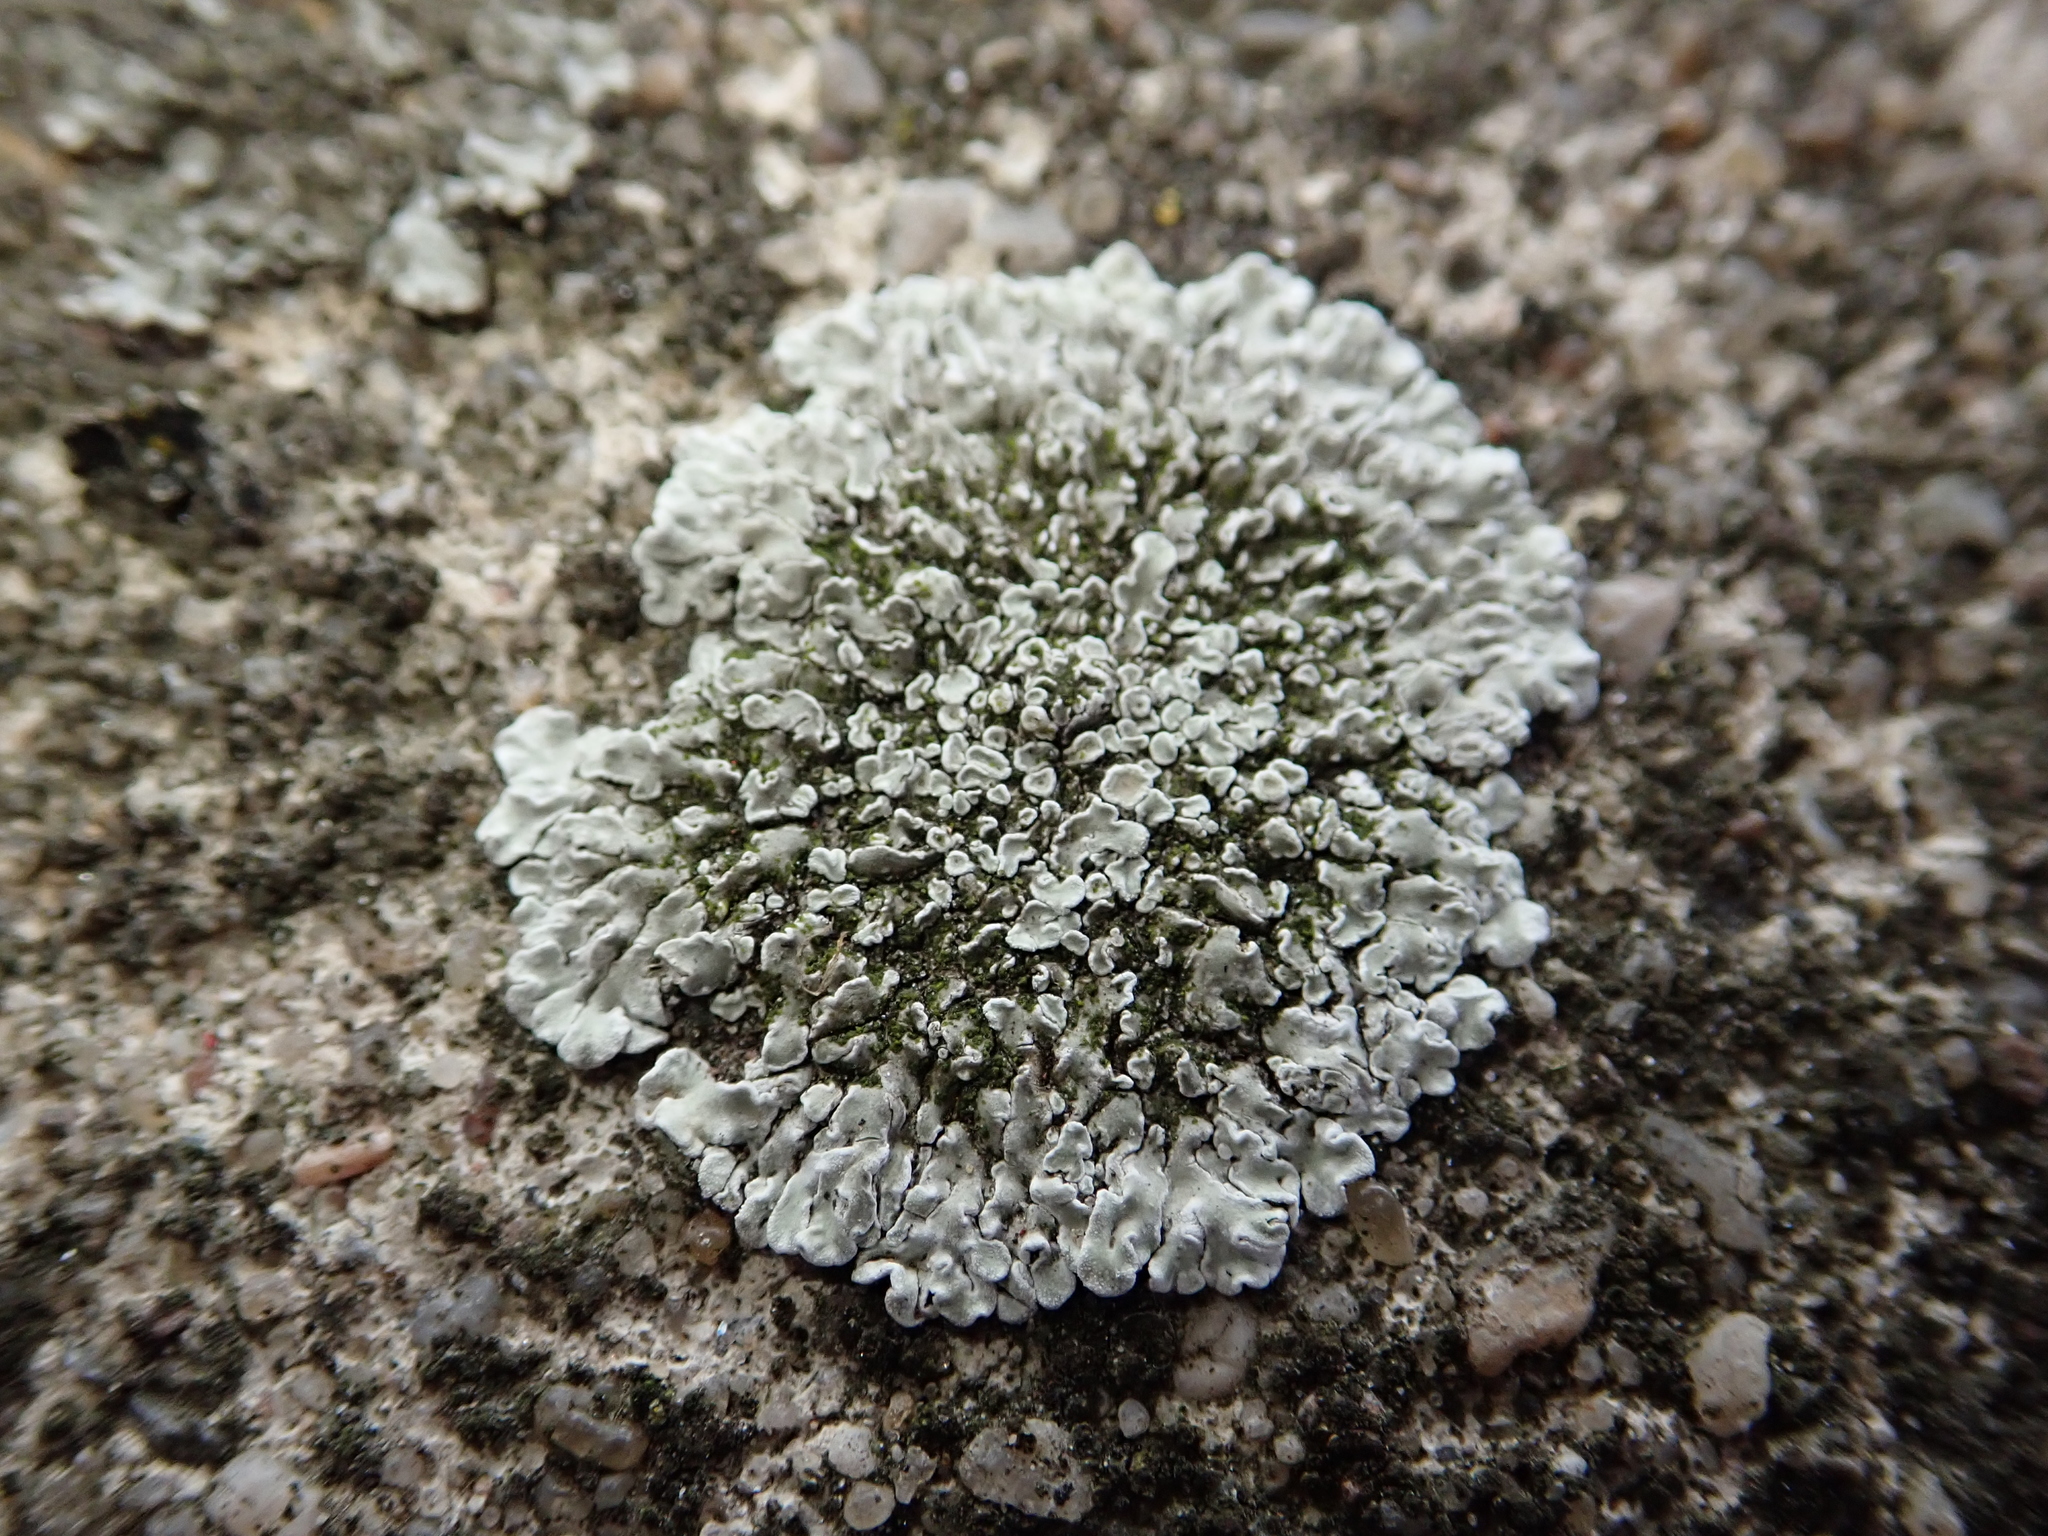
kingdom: Fungi
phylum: Ascomycota
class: Lecanoromycetes
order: Lecanorales
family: Lecanoraceae
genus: Protoparmeliopsis
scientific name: Protoparmeliopsis muralis
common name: Stonewall rim lichen
